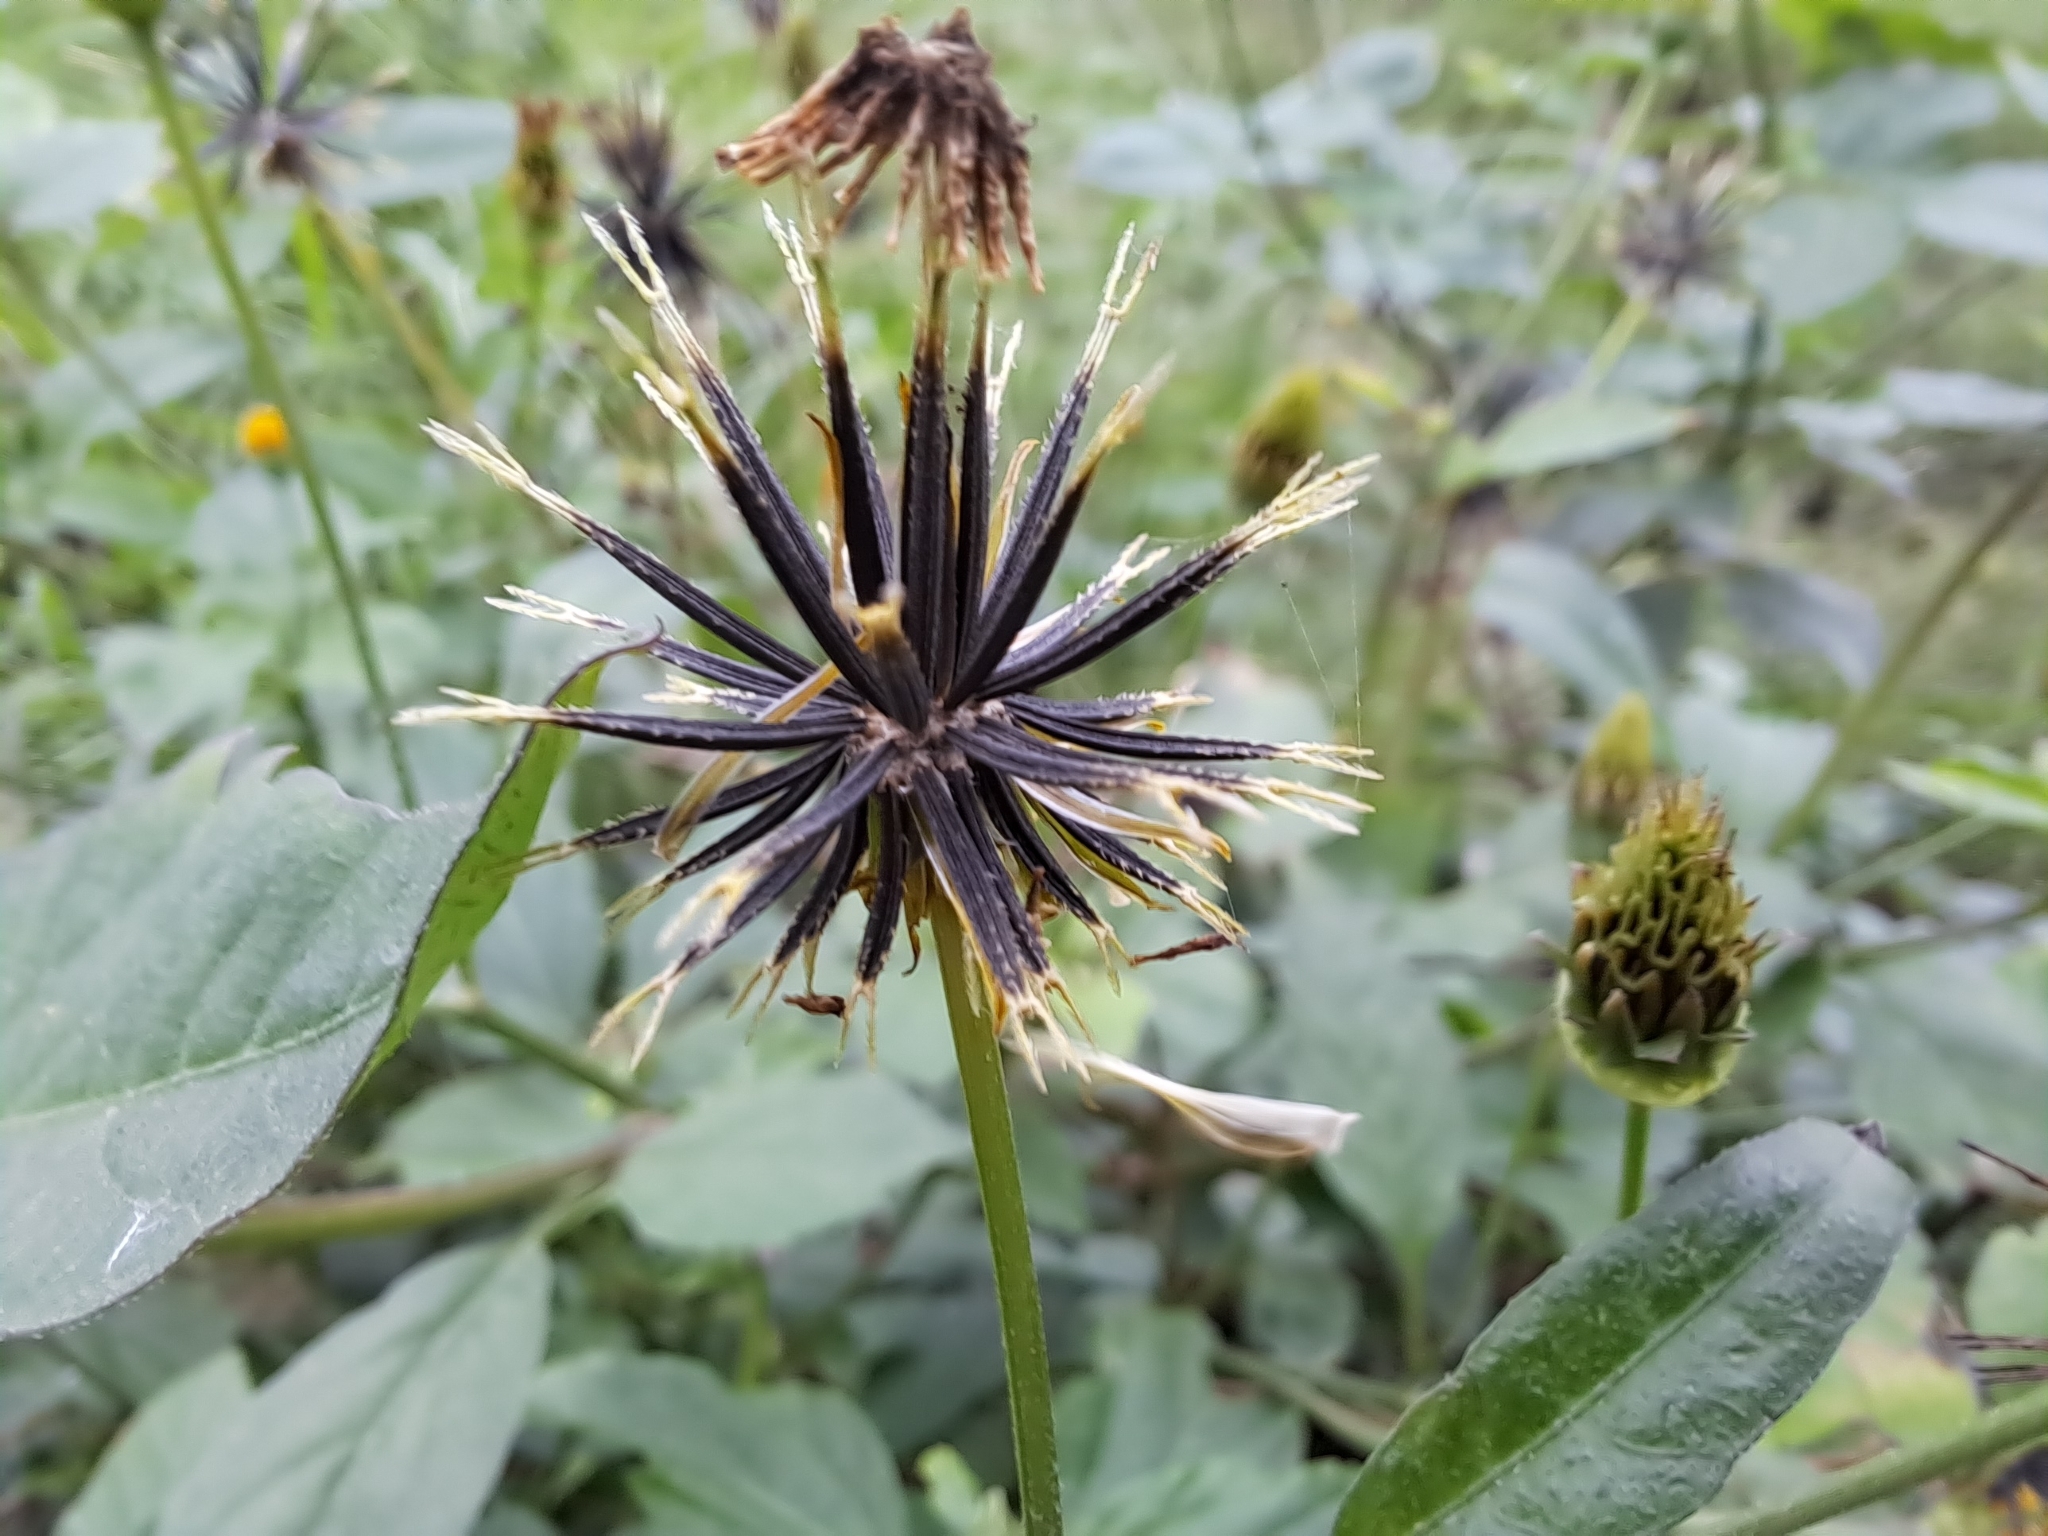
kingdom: Plantae
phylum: Tracheophyta
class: Magnoliopsida
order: Asterales
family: Asteraceae
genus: Bidens
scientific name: Bidens pilosa
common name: Black-jack
